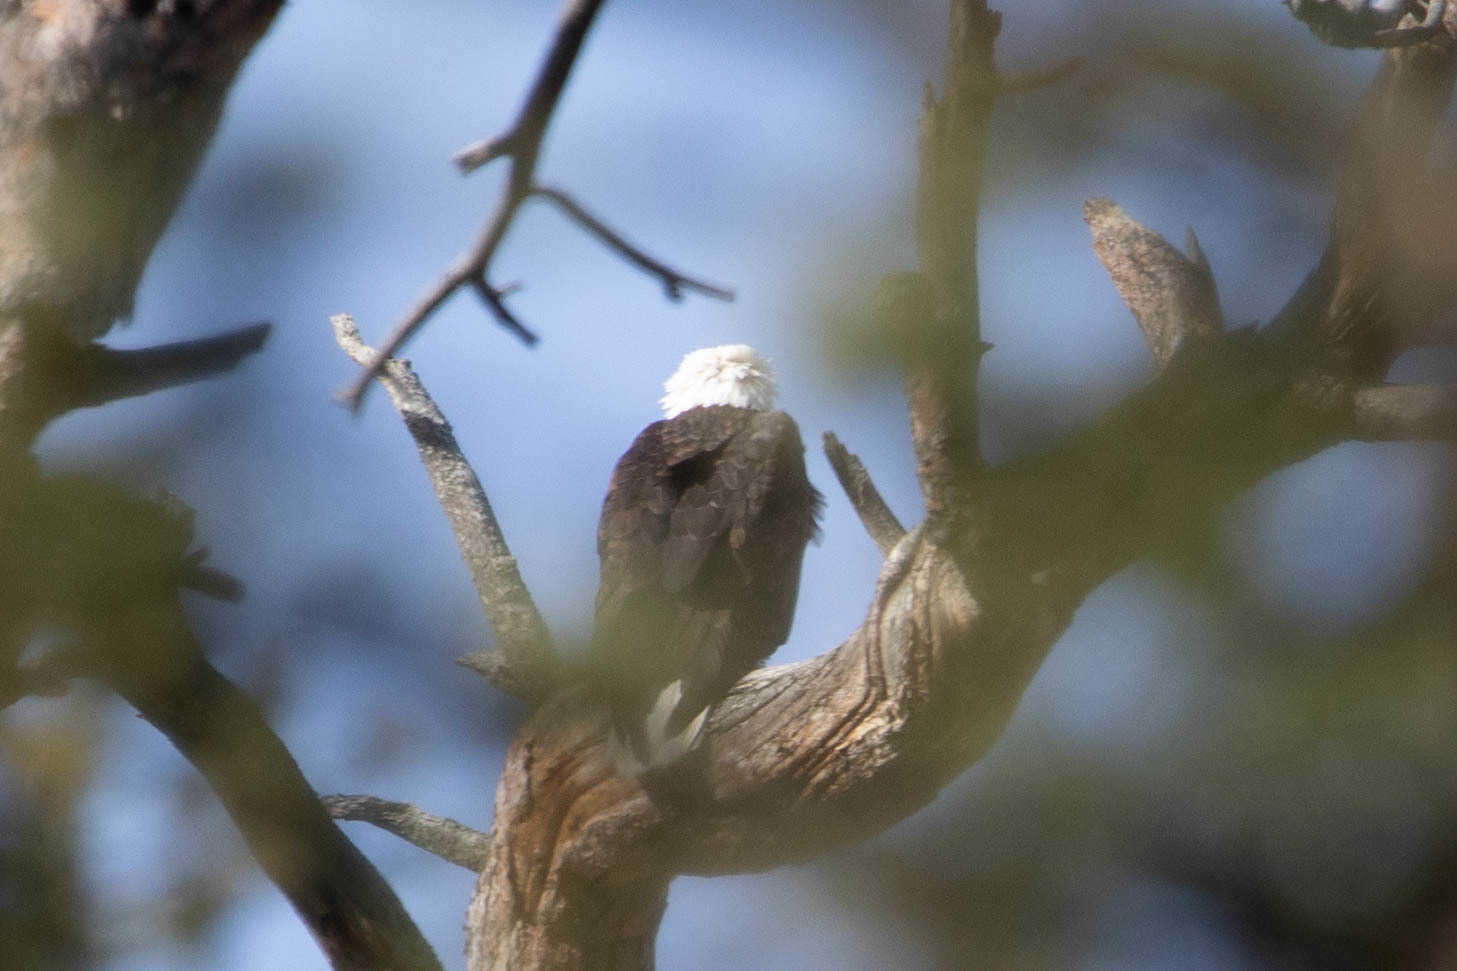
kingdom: Animalia
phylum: Chordata
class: Aves
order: Accipitriformes
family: Accipitridae
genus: Haliaeetus
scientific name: Haliaeetus leucocephalus
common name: Bald eagle
